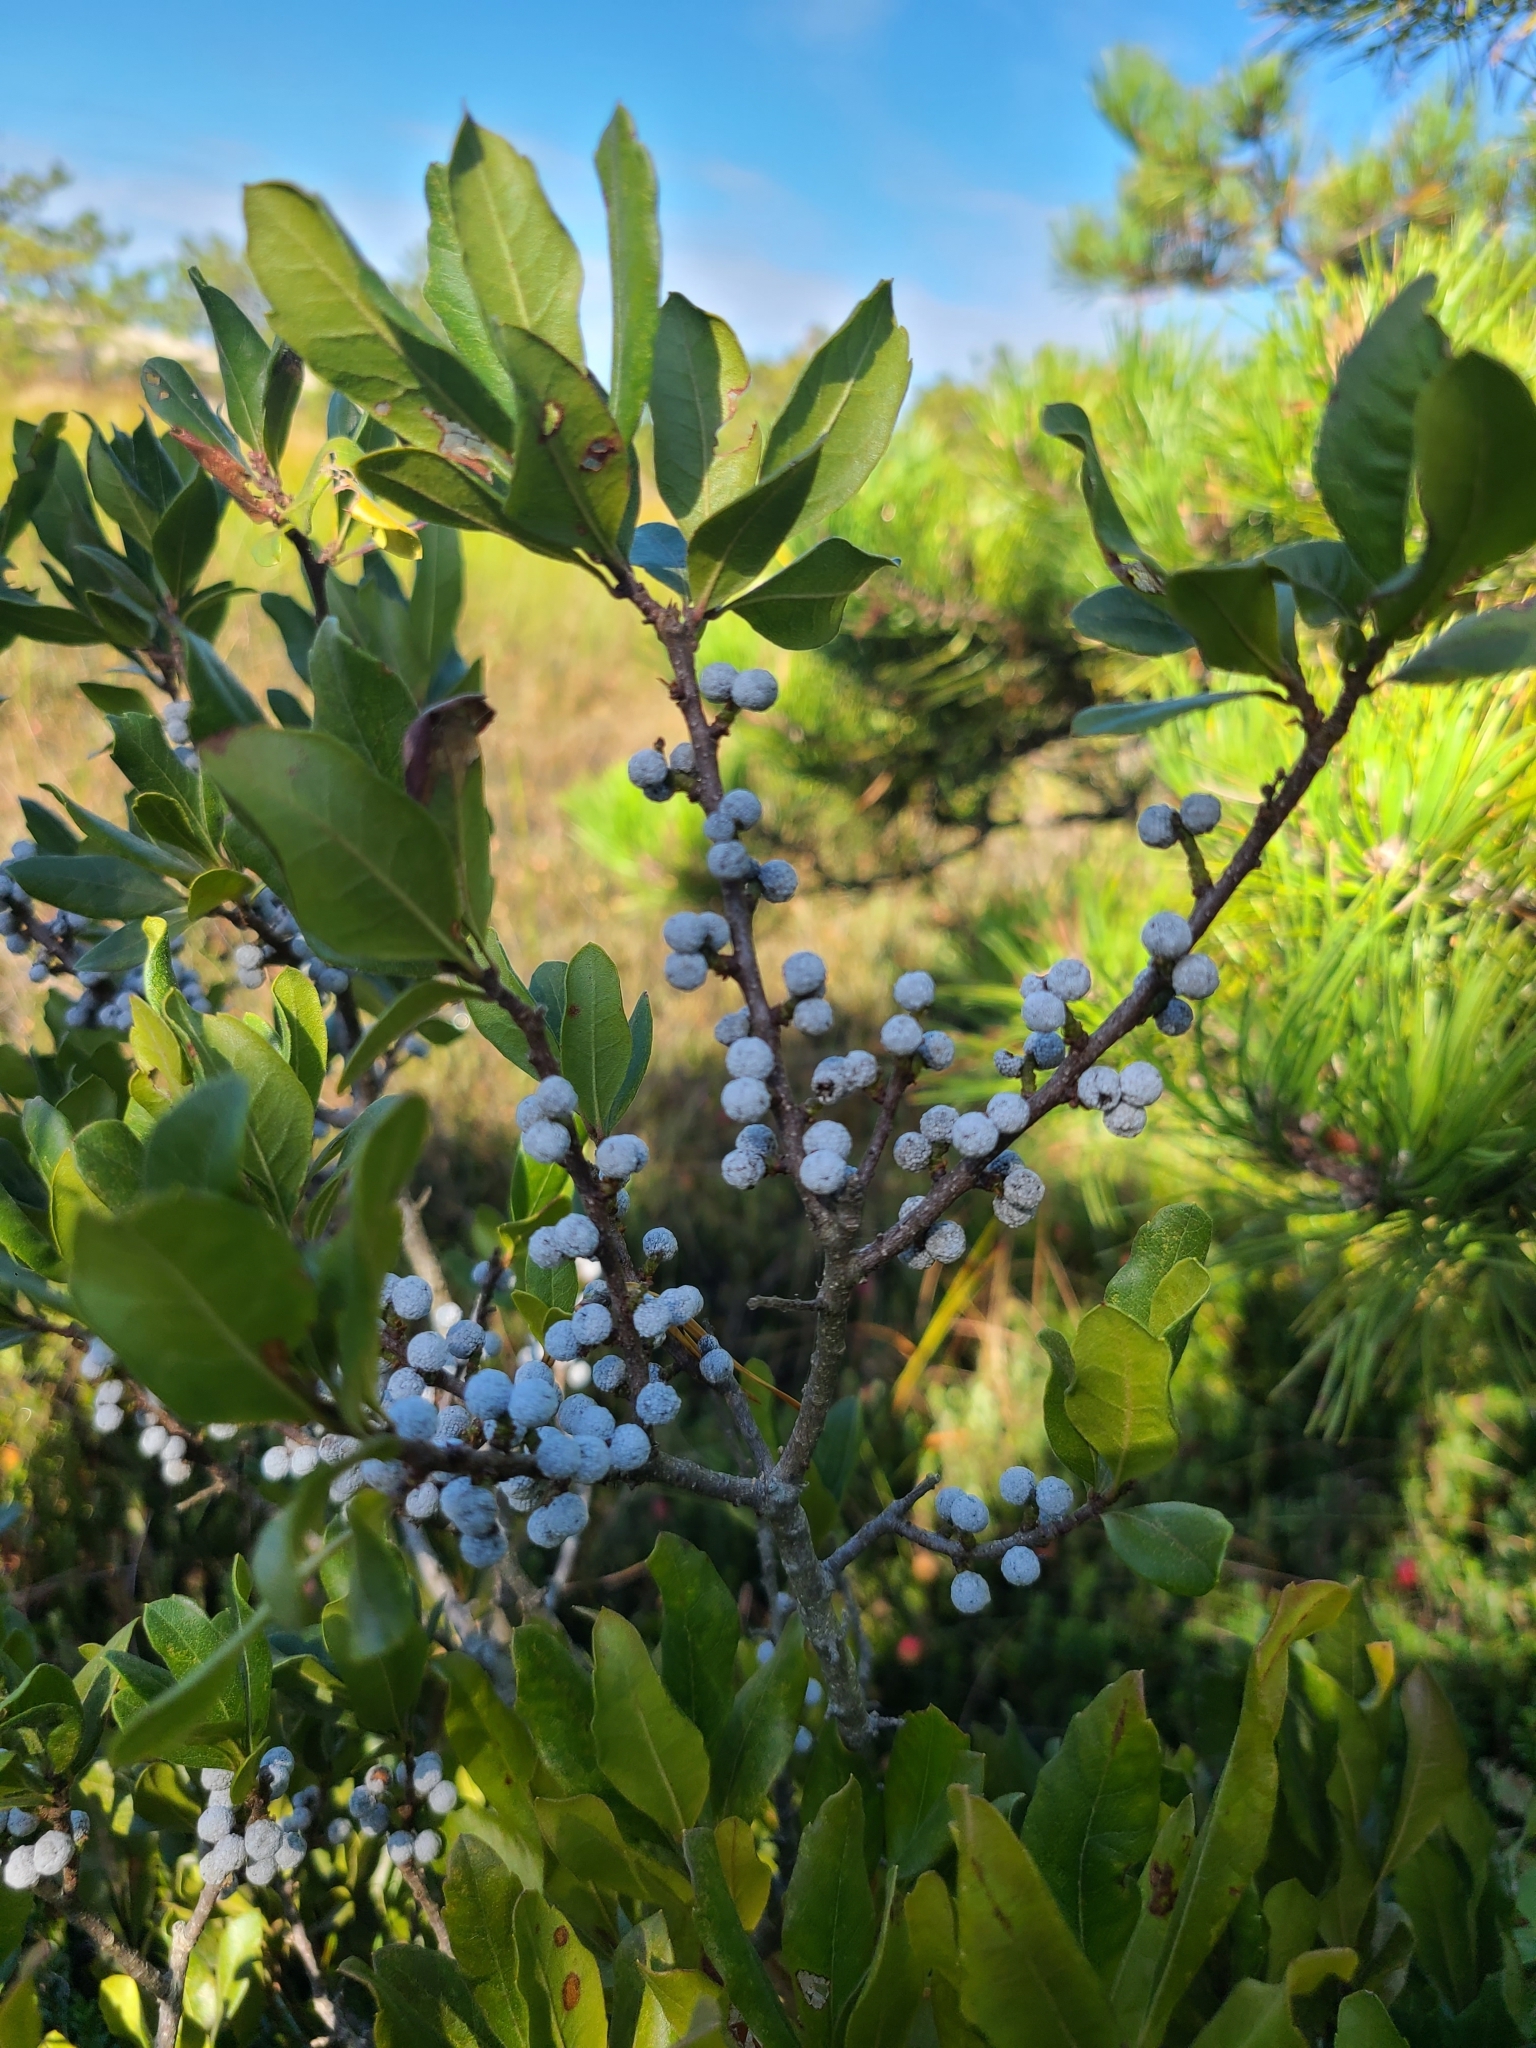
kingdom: Plantae
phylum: Tracheophyta
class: Magnoliopsida
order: Fagales
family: Myricaceae
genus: Morella
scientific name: Morella pensylvanica
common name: Northern bayberry
